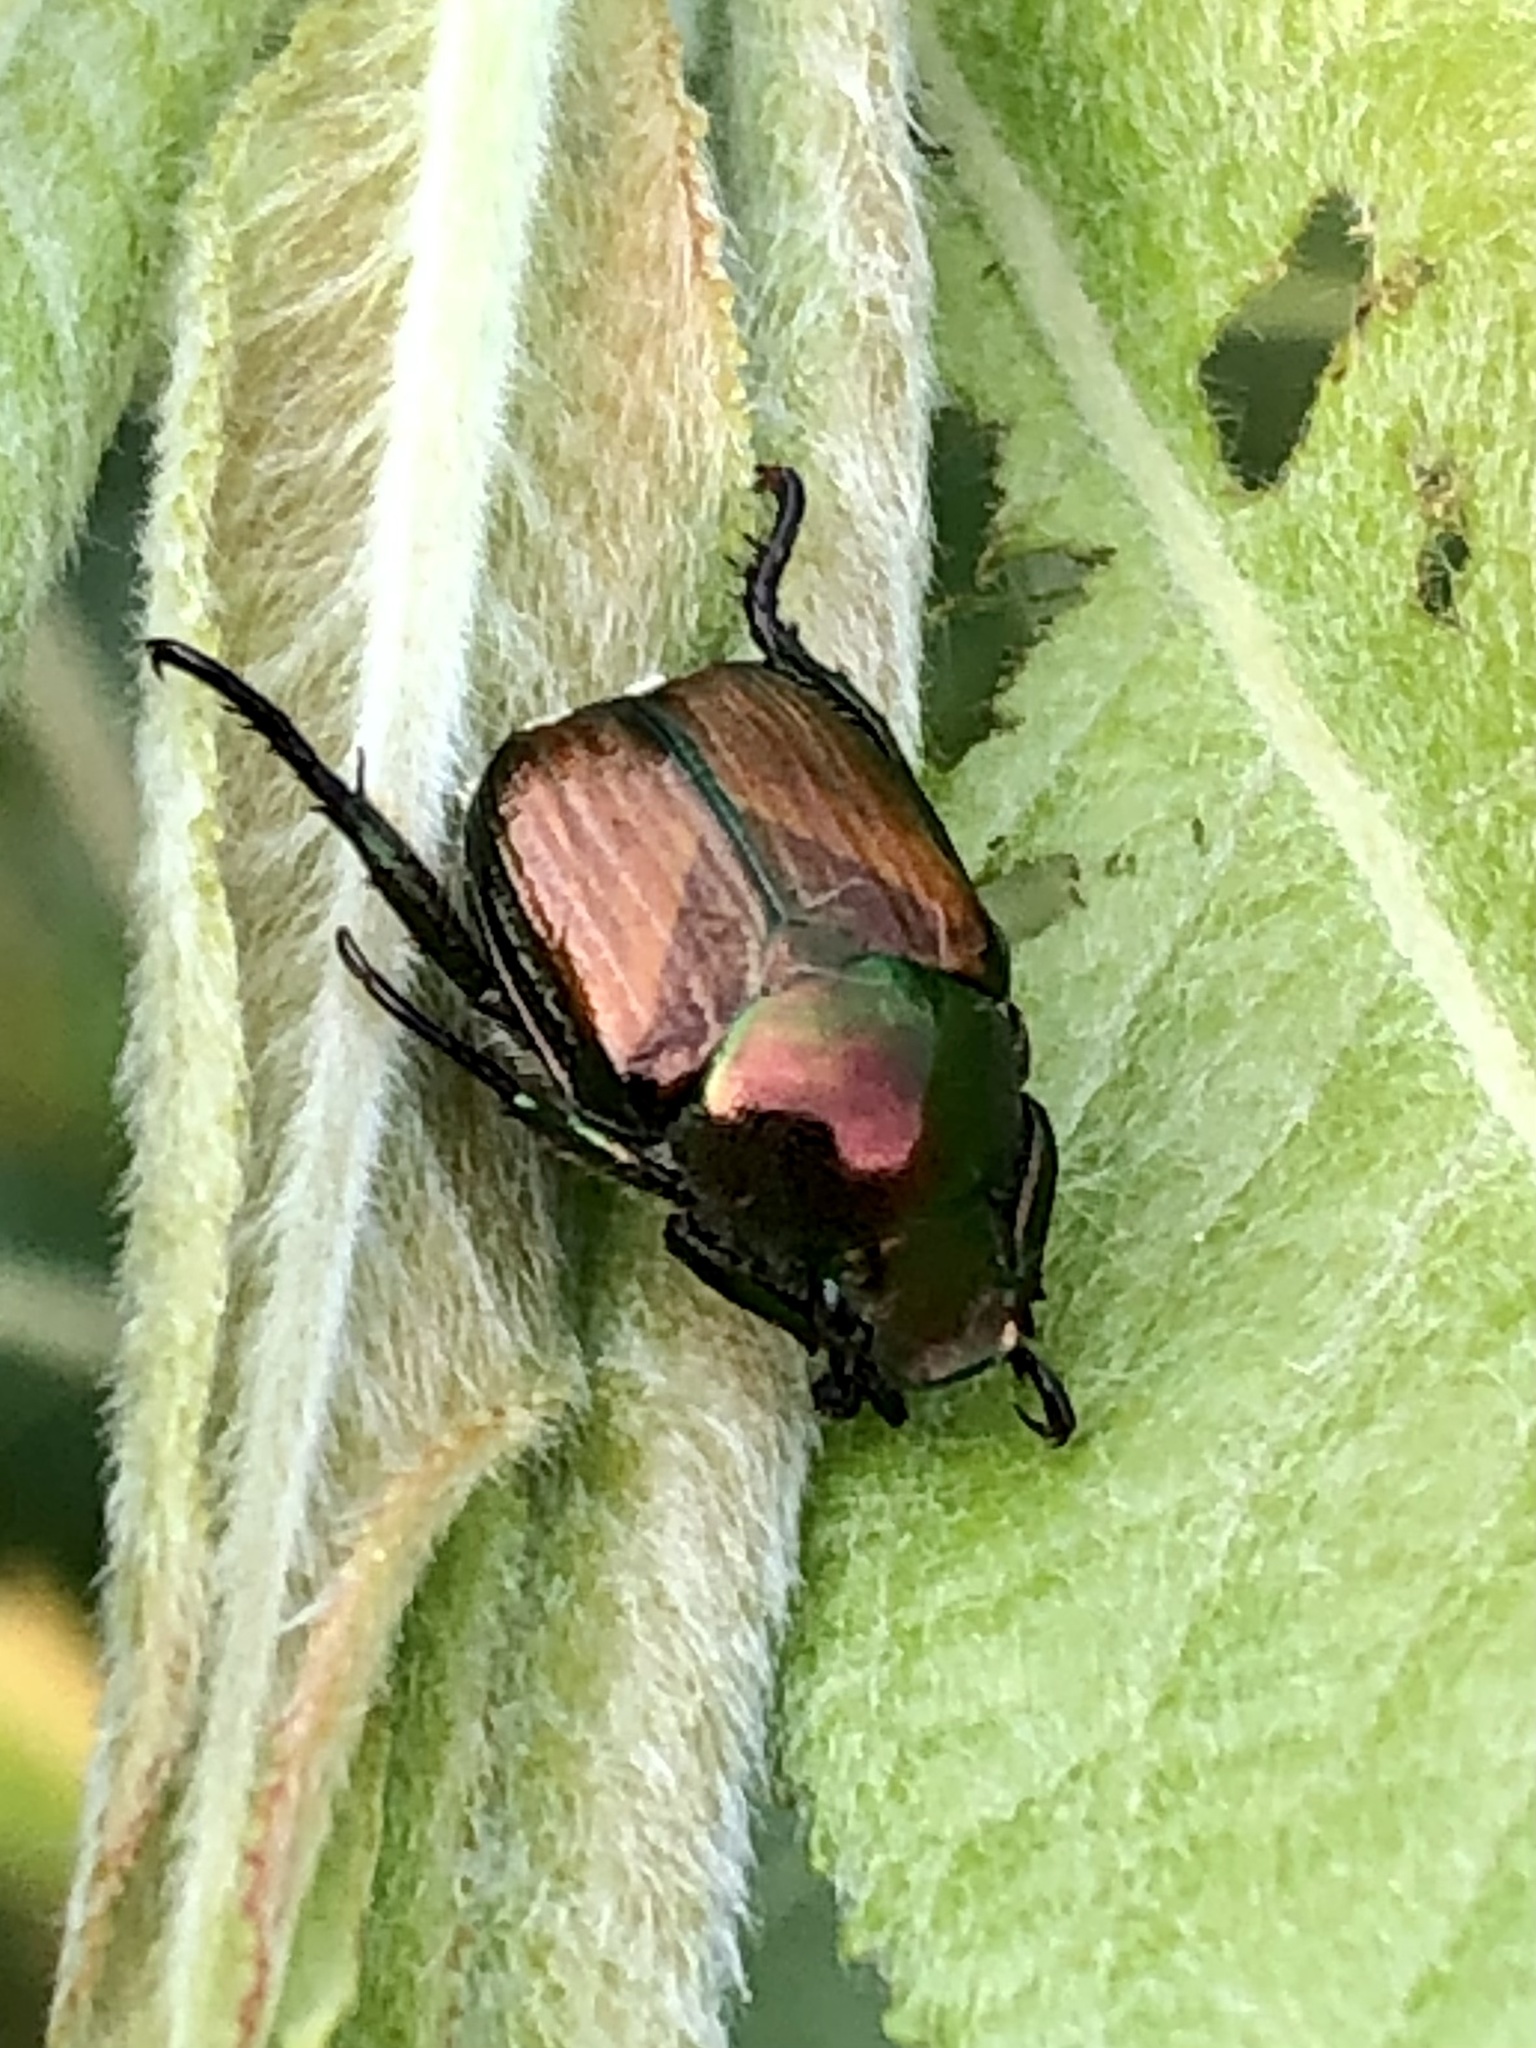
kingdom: Animalia
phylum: Arthropoda
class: Insecta
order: Coleoptera
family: Scarabaeidae
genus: Popillia
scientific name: Popillia japonica
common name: Japanese beetle
